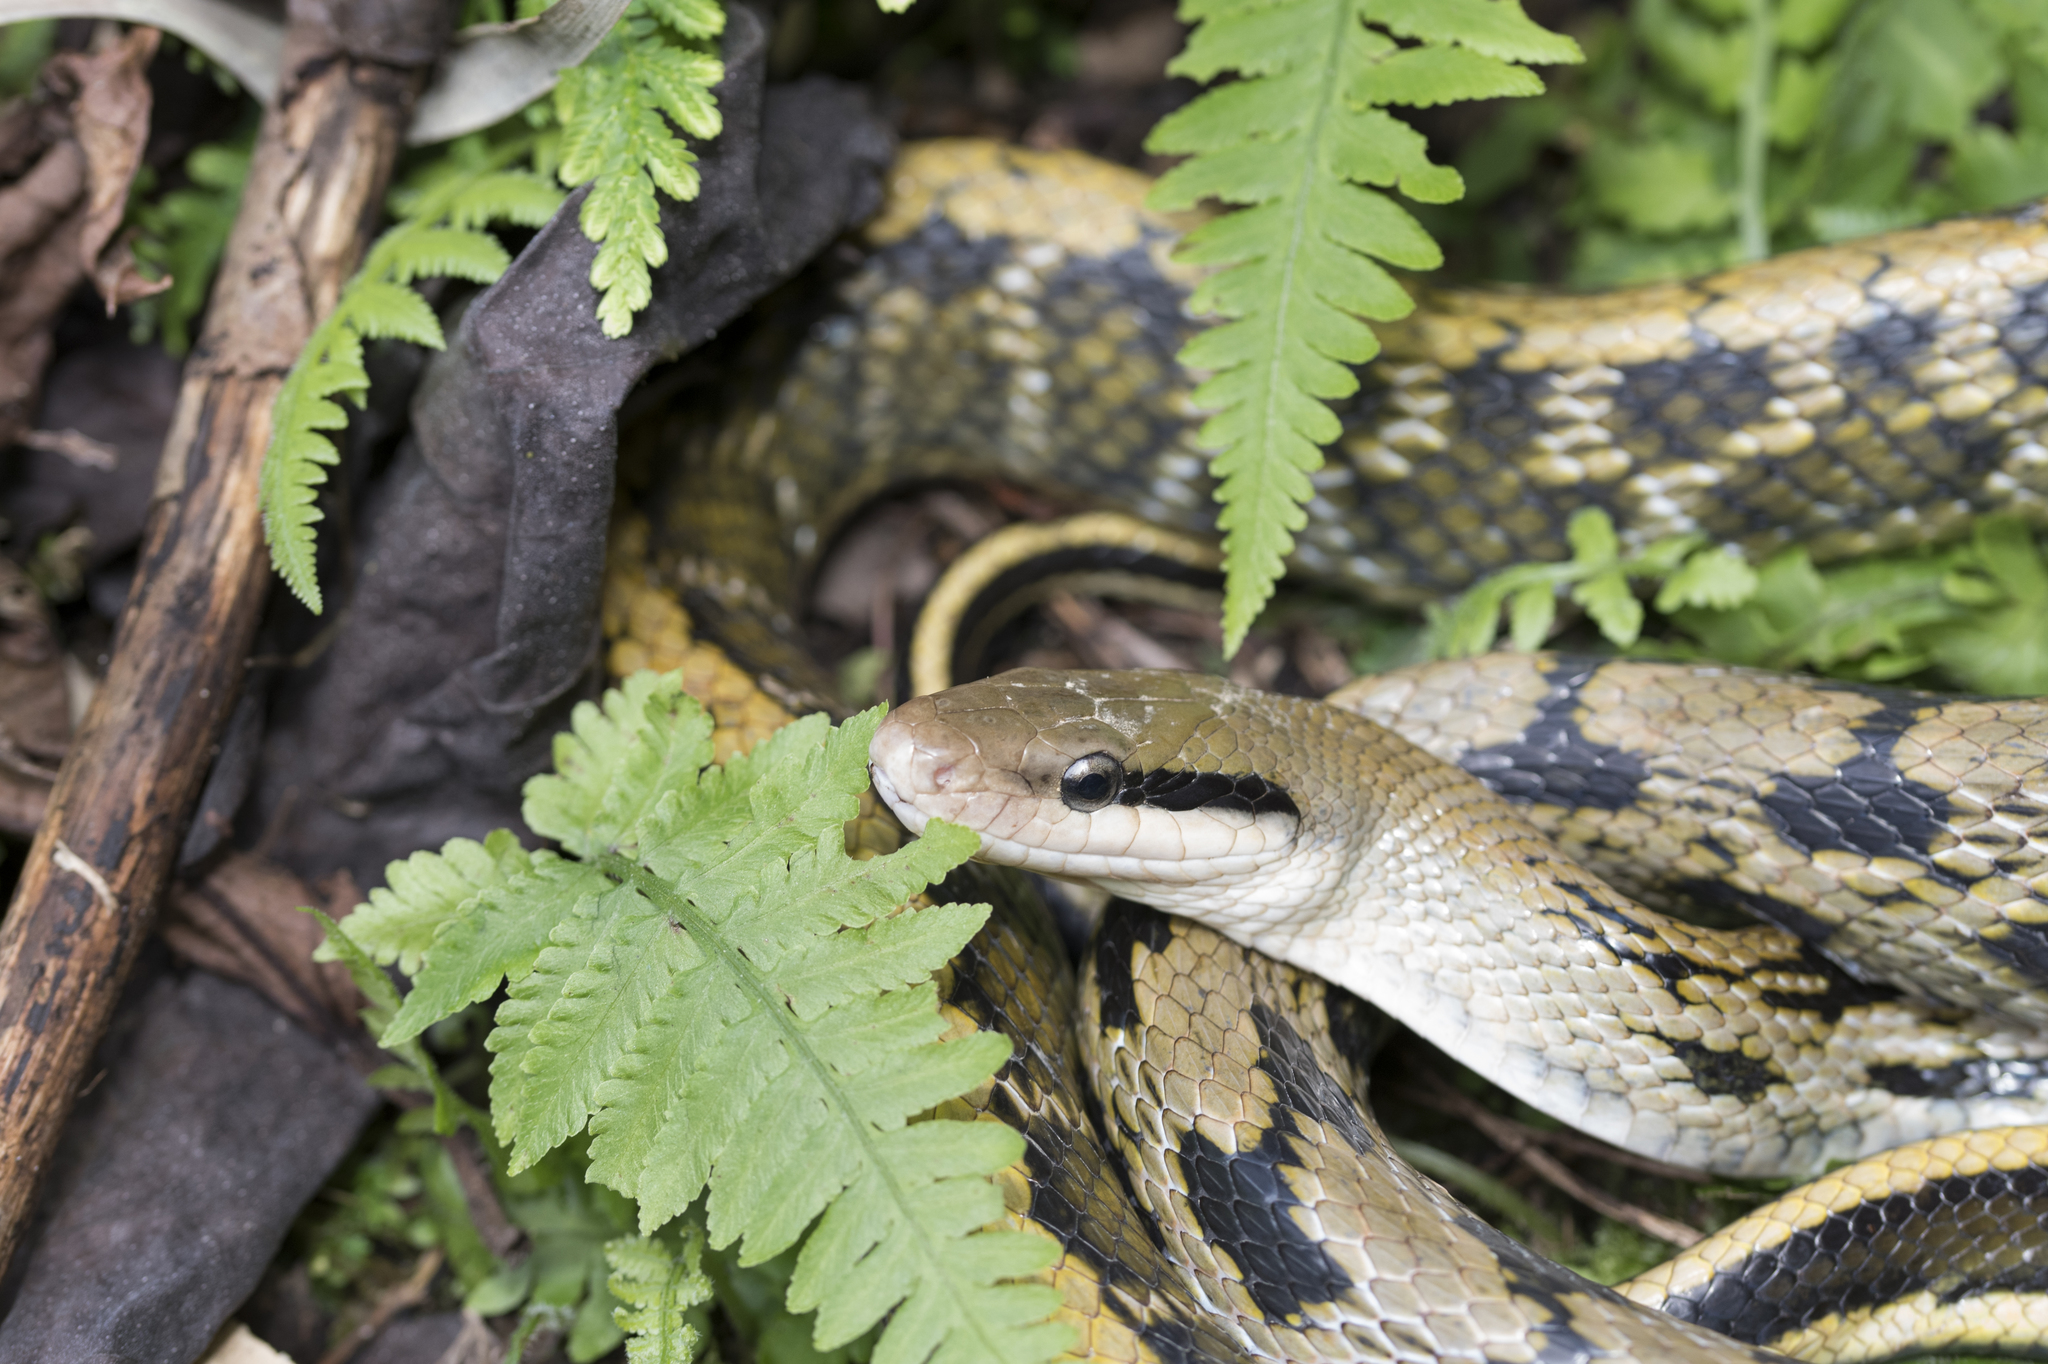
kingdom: Animalia
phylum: Chordata
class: Squamata
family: Colubridae
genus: Elaphe
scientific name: Elaphe taeniura
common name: Beauty snake
